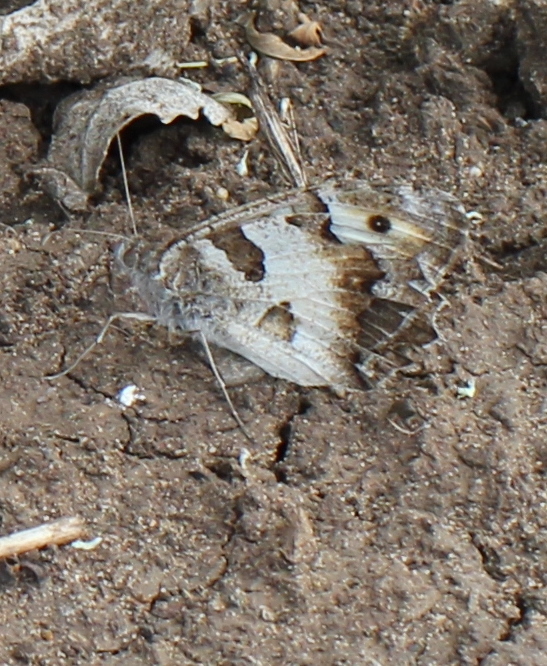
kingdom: Animalia
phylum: Arthropoda
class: Insecta
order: Lepidoptera
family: Nymphalidae
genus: Satyrus
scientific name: Satyrus briseis
